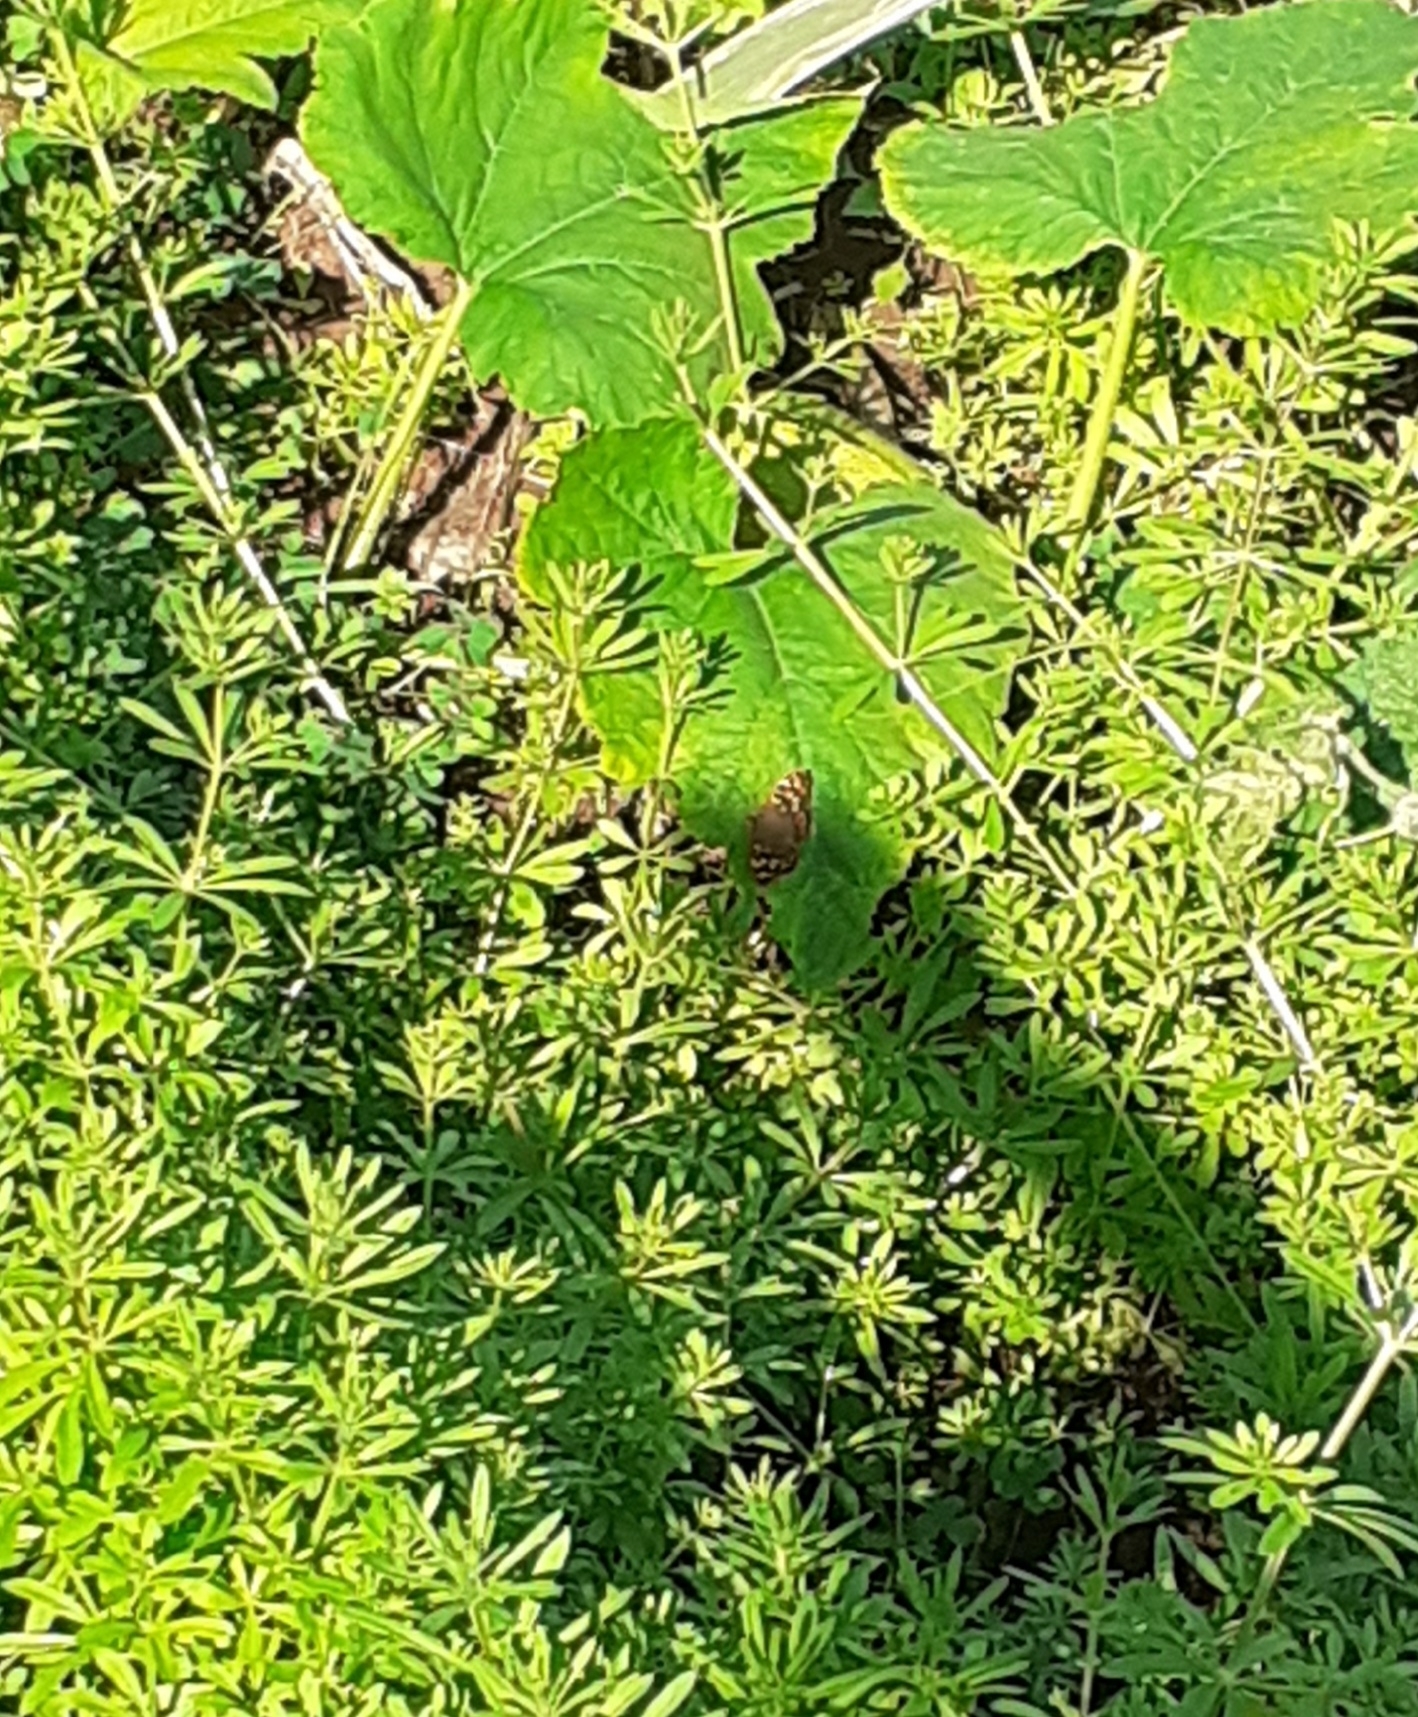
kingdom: Animalia
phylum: Arthropoda
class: Insecta
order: Lepidoptera
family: Nymphalidae
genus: Pararge
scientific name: Pararge aegeria
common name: Speckled wood
